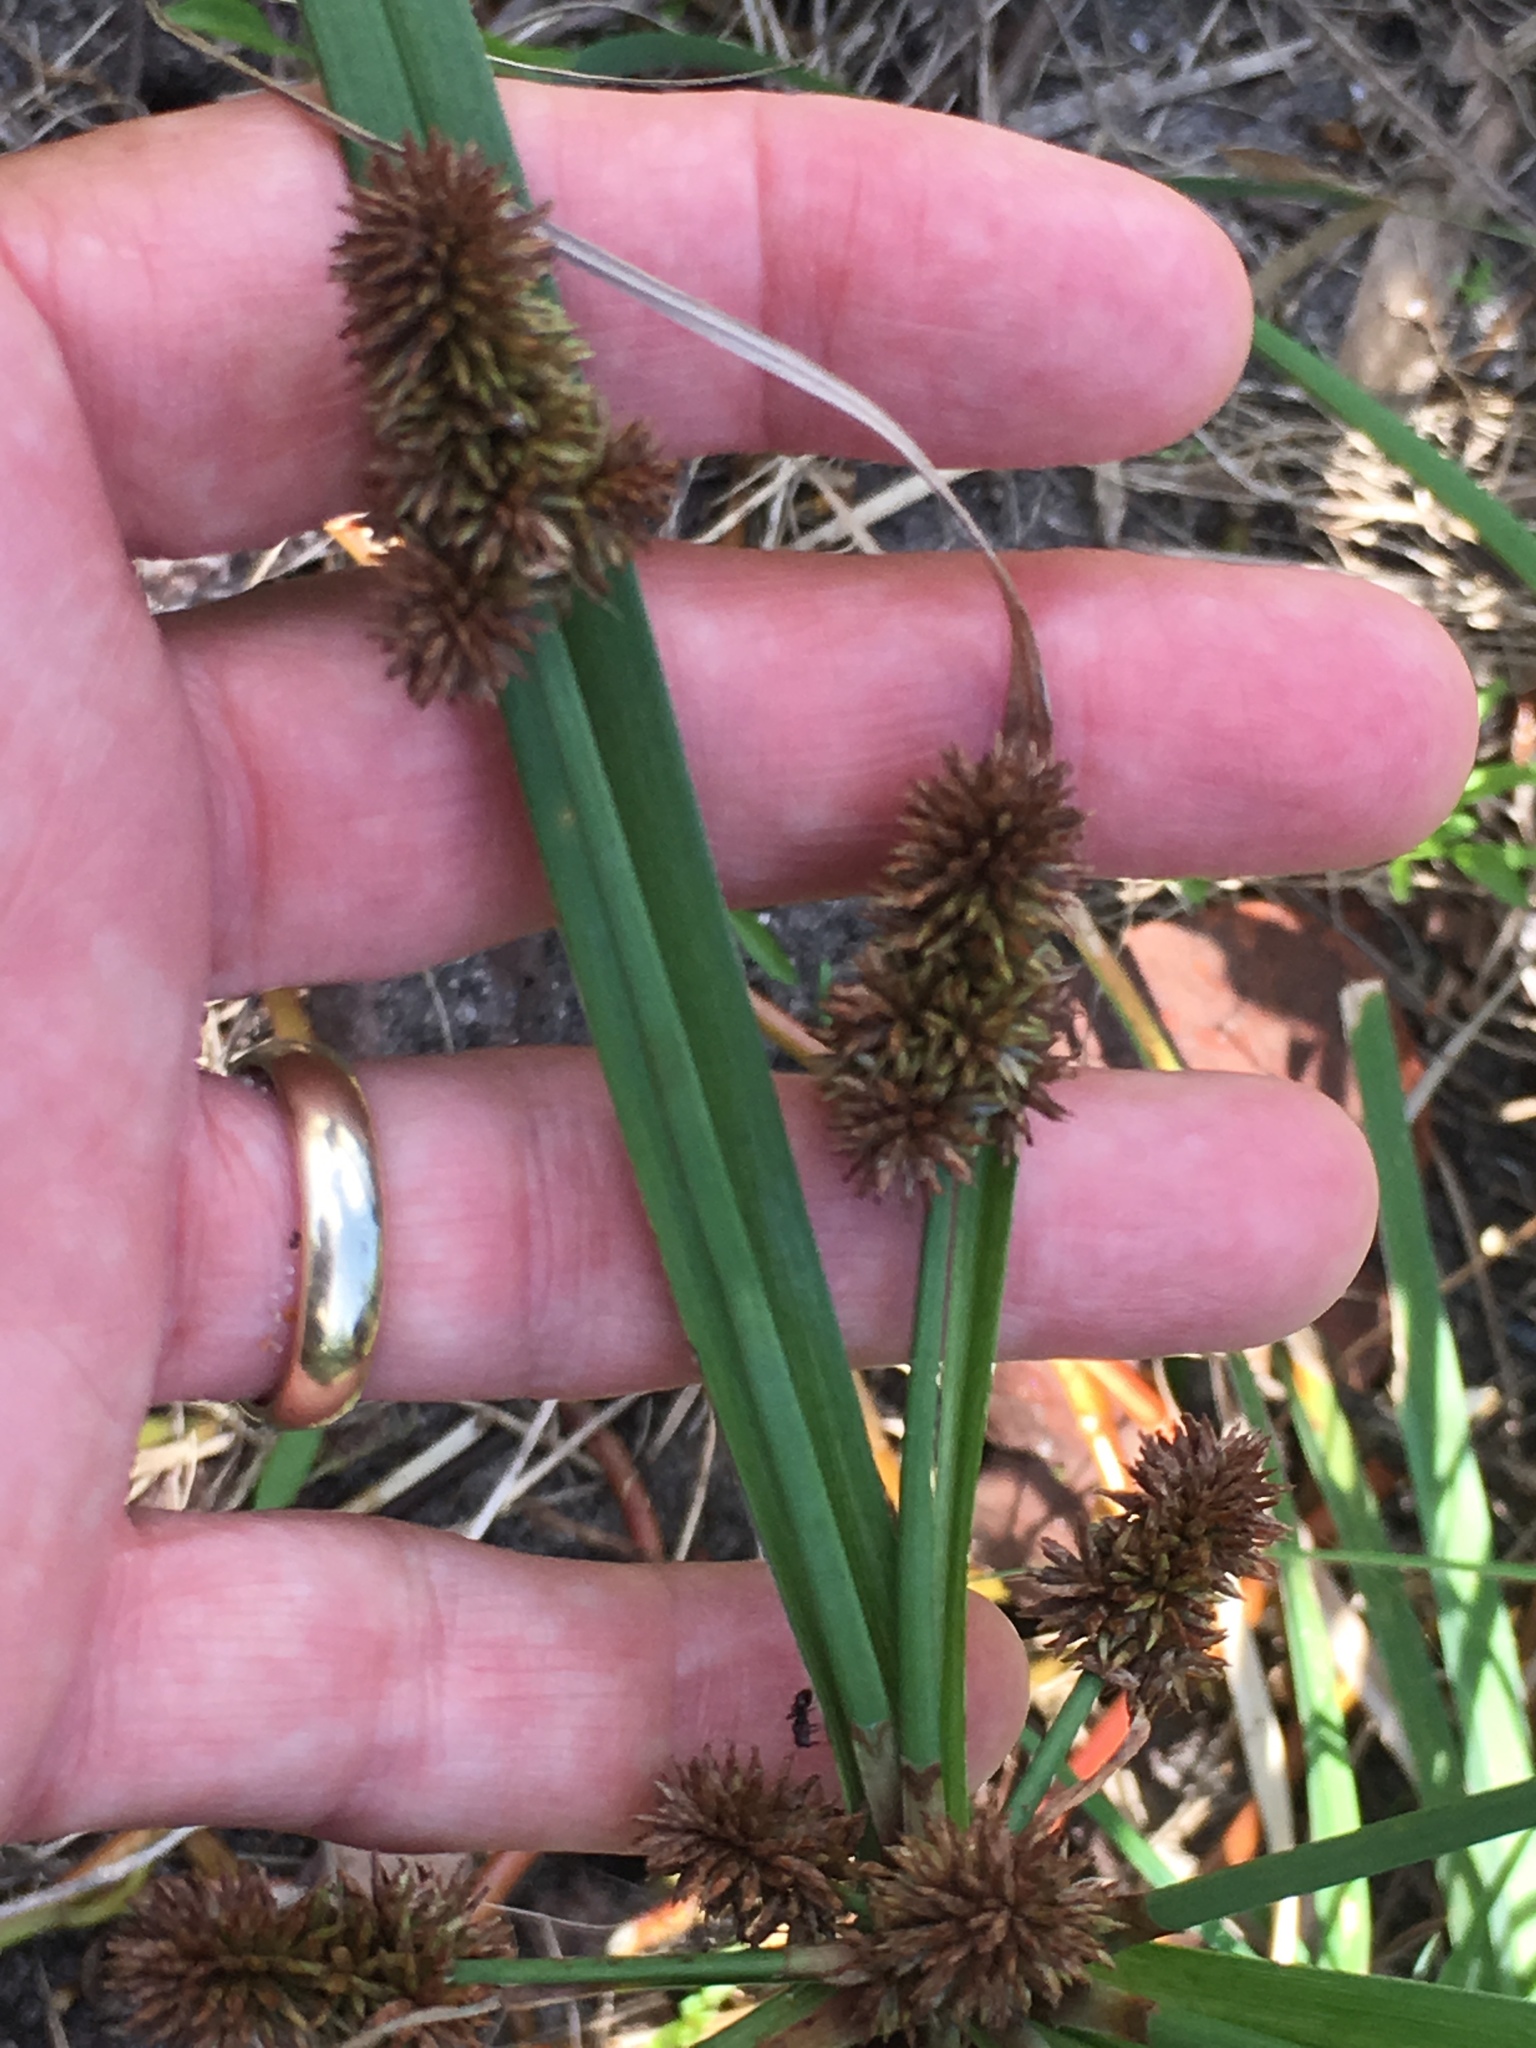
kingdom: Plantae
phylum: Tracheophyta
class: Liliopsida
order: Poales
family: Cyperaceae
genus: Cyperus
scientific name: Cyperus ligularis
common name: Swamp flat sedge
